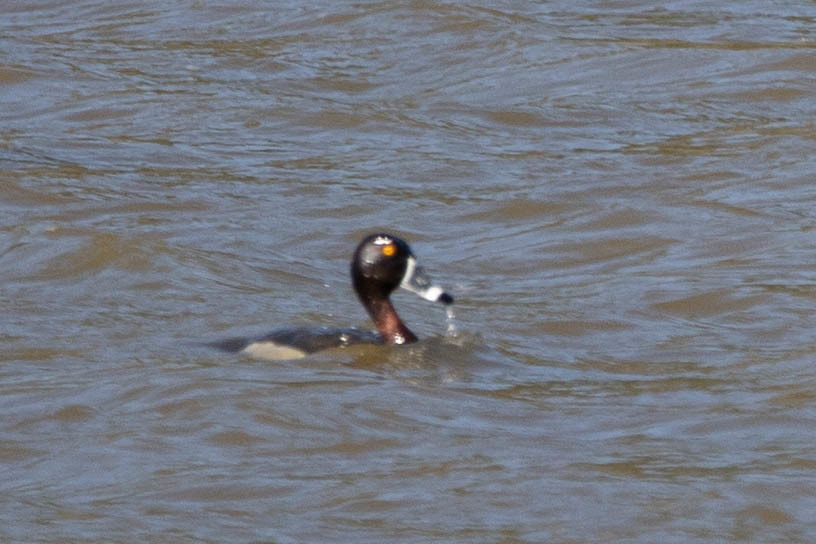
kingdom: Animalia
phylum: Chordata
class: Aves
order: Anseriformes
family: Anatidae
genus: Aythya
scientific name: Aythya collaris
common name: Ring-necked duck
